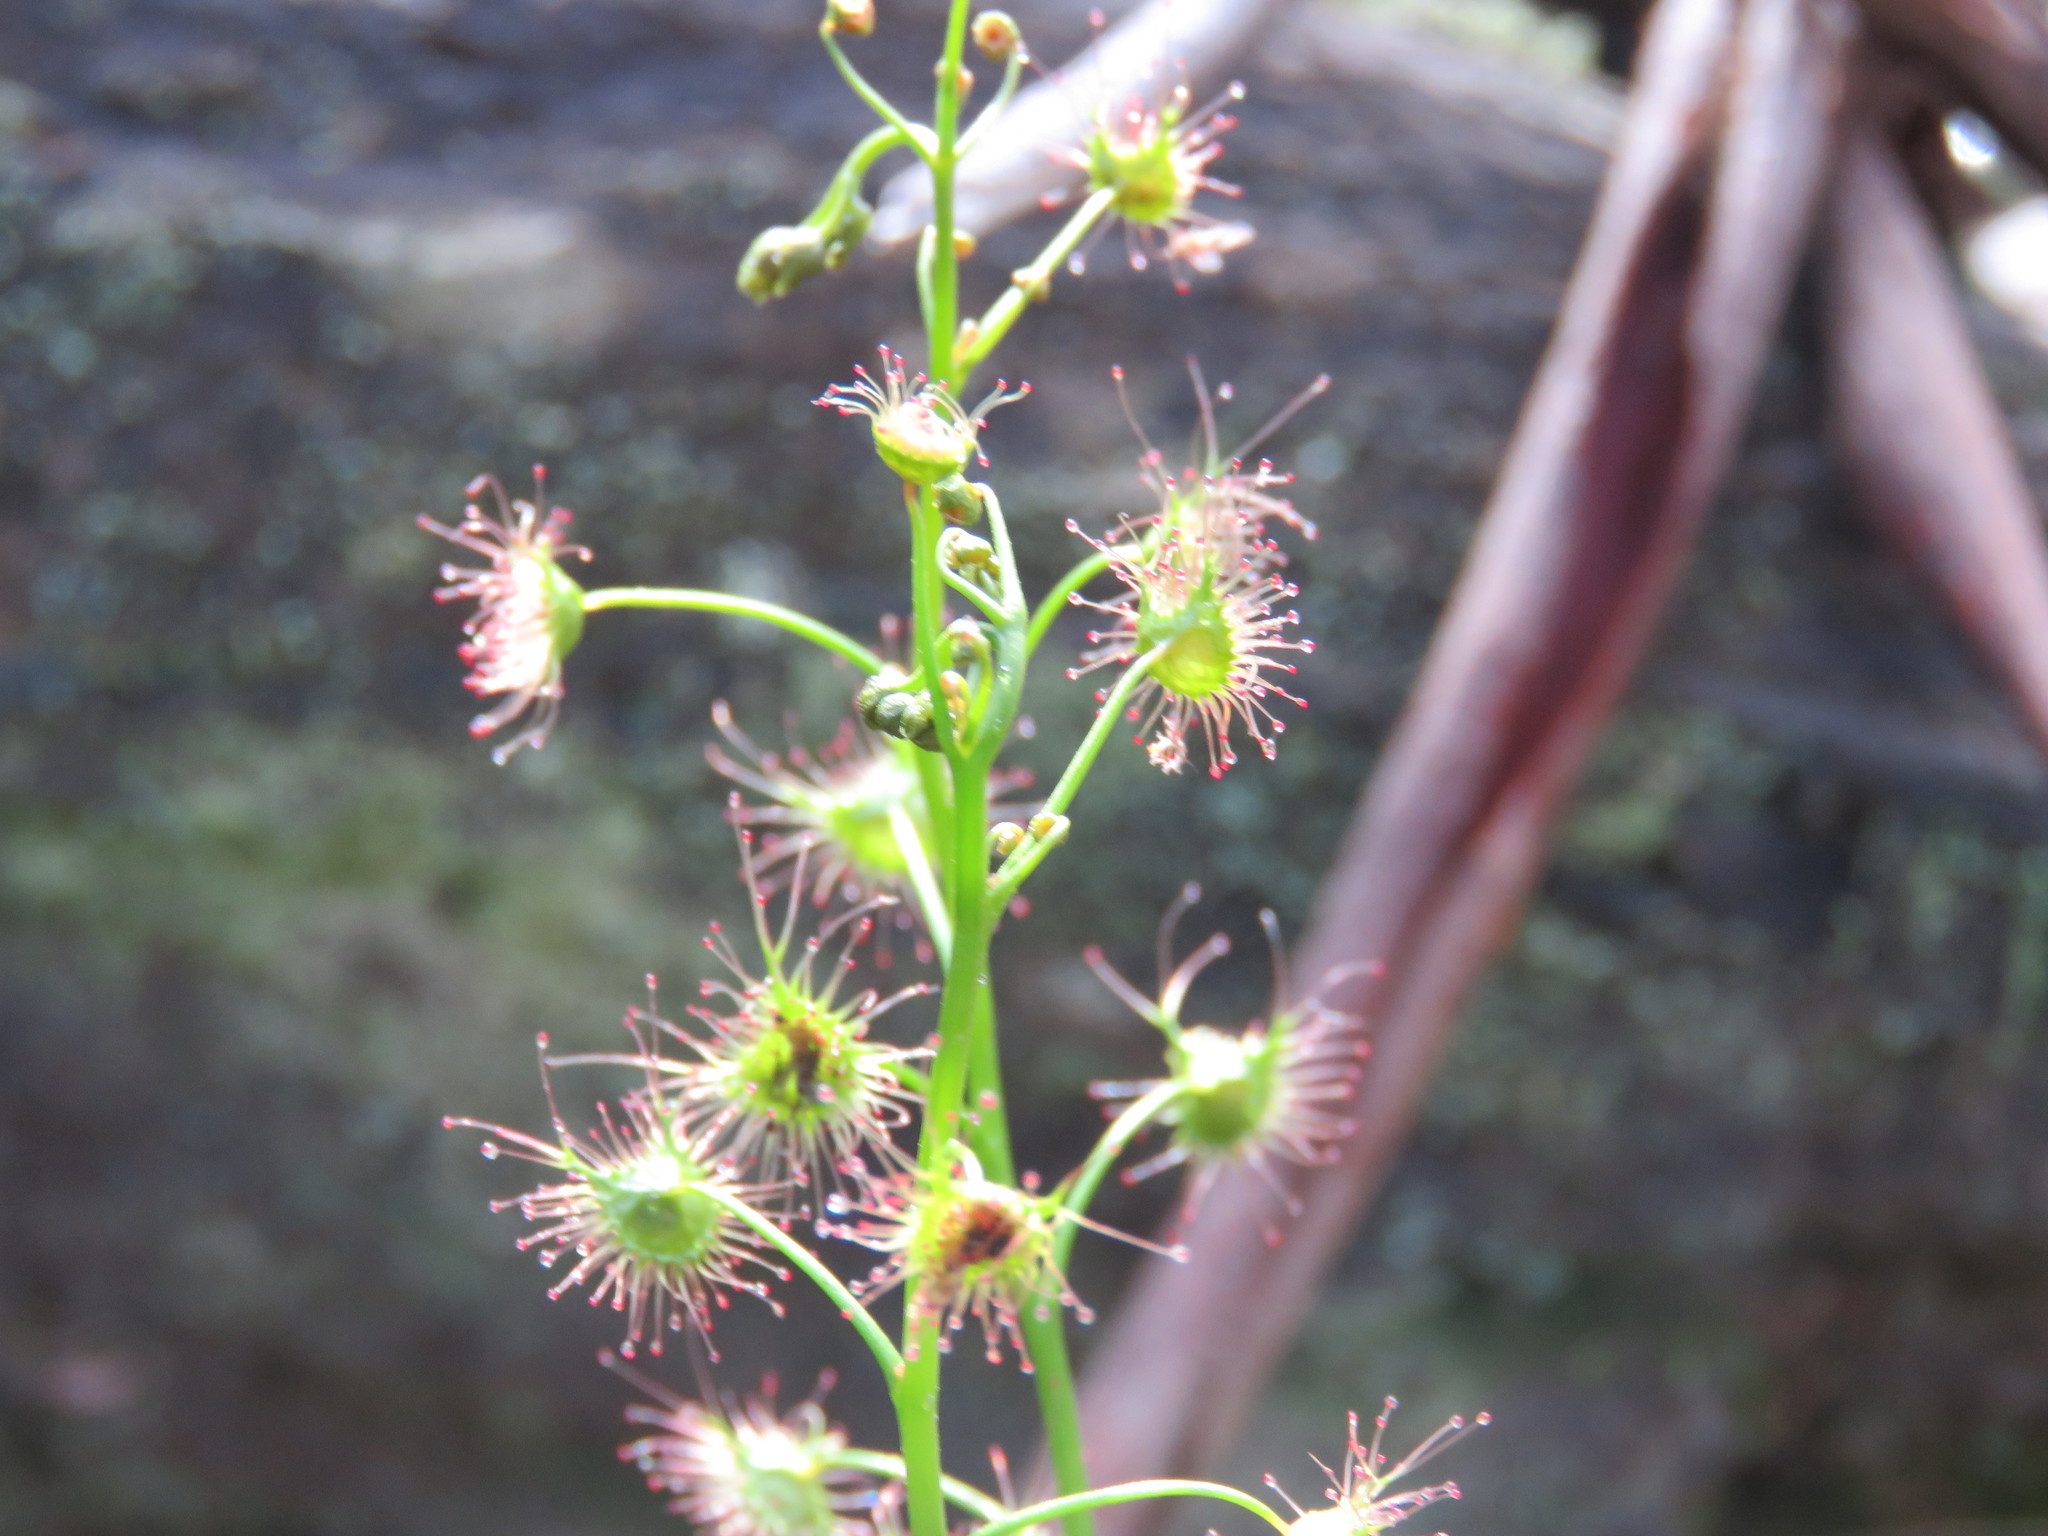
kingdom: Plantae
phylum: Tracheophyta
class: Magnoliopsida
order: Caryophyllales
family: Droseraceae
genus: Drosera
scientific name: Drosera peltata
